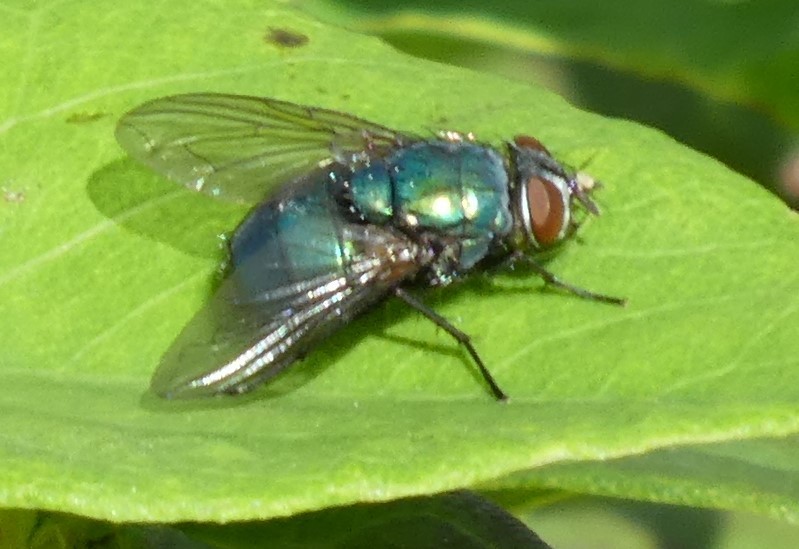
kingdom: Animalia
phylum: Arthropoda
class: Insecta
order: Diptera
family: Calliphoridae
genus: Lucilia
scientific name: Lucilia
